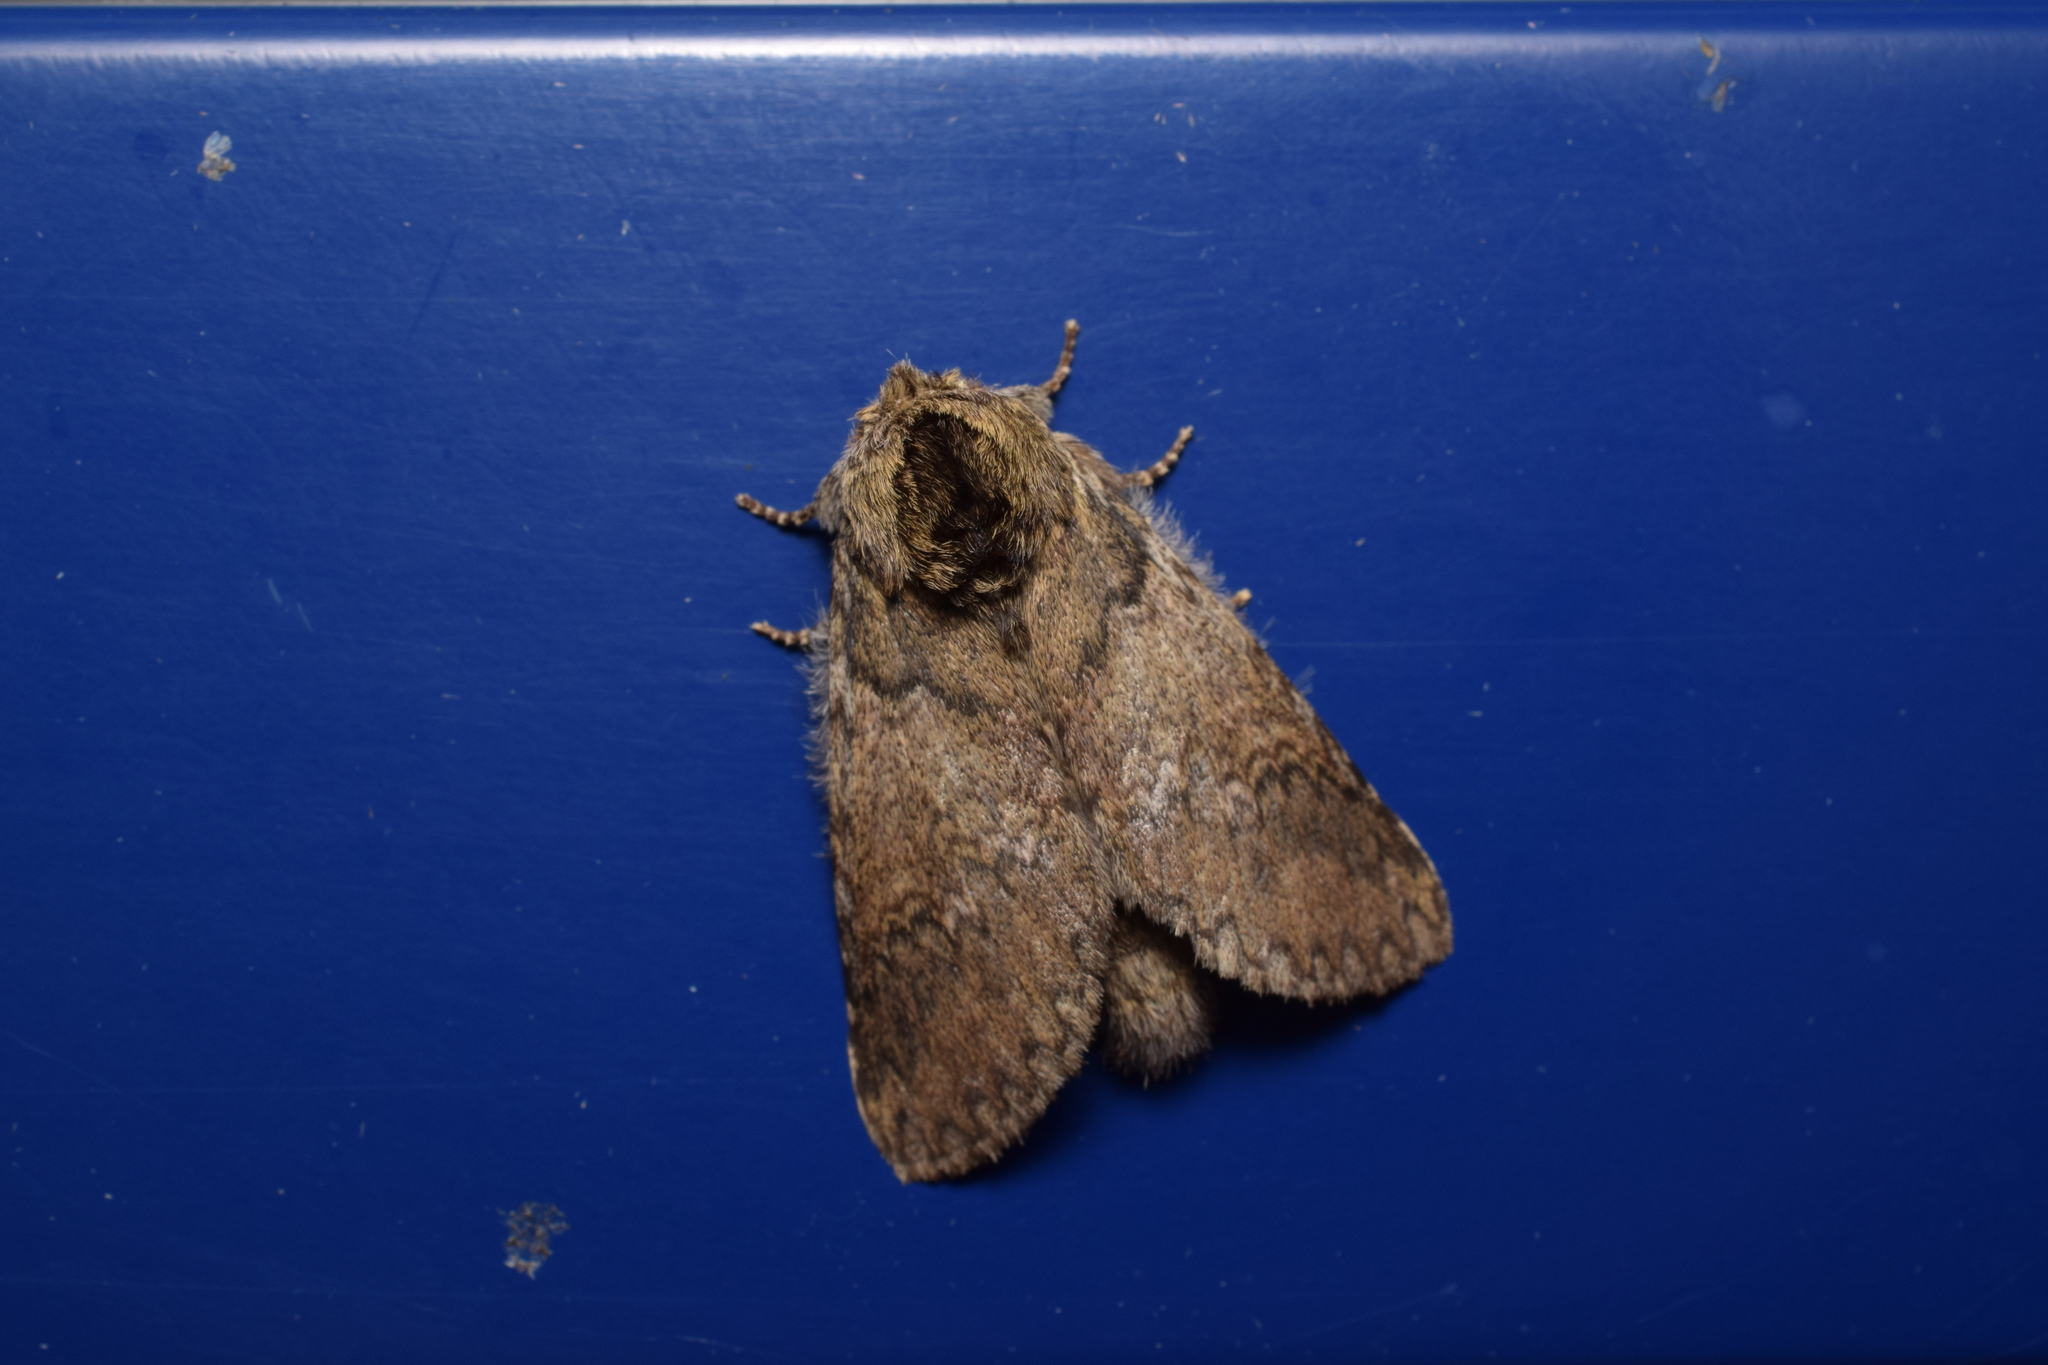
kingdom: Animalia
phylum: Arthropoda
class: Insecta
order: Lepidoptera
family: Notodontidae
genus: Disparia
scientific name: Disparia diluta
